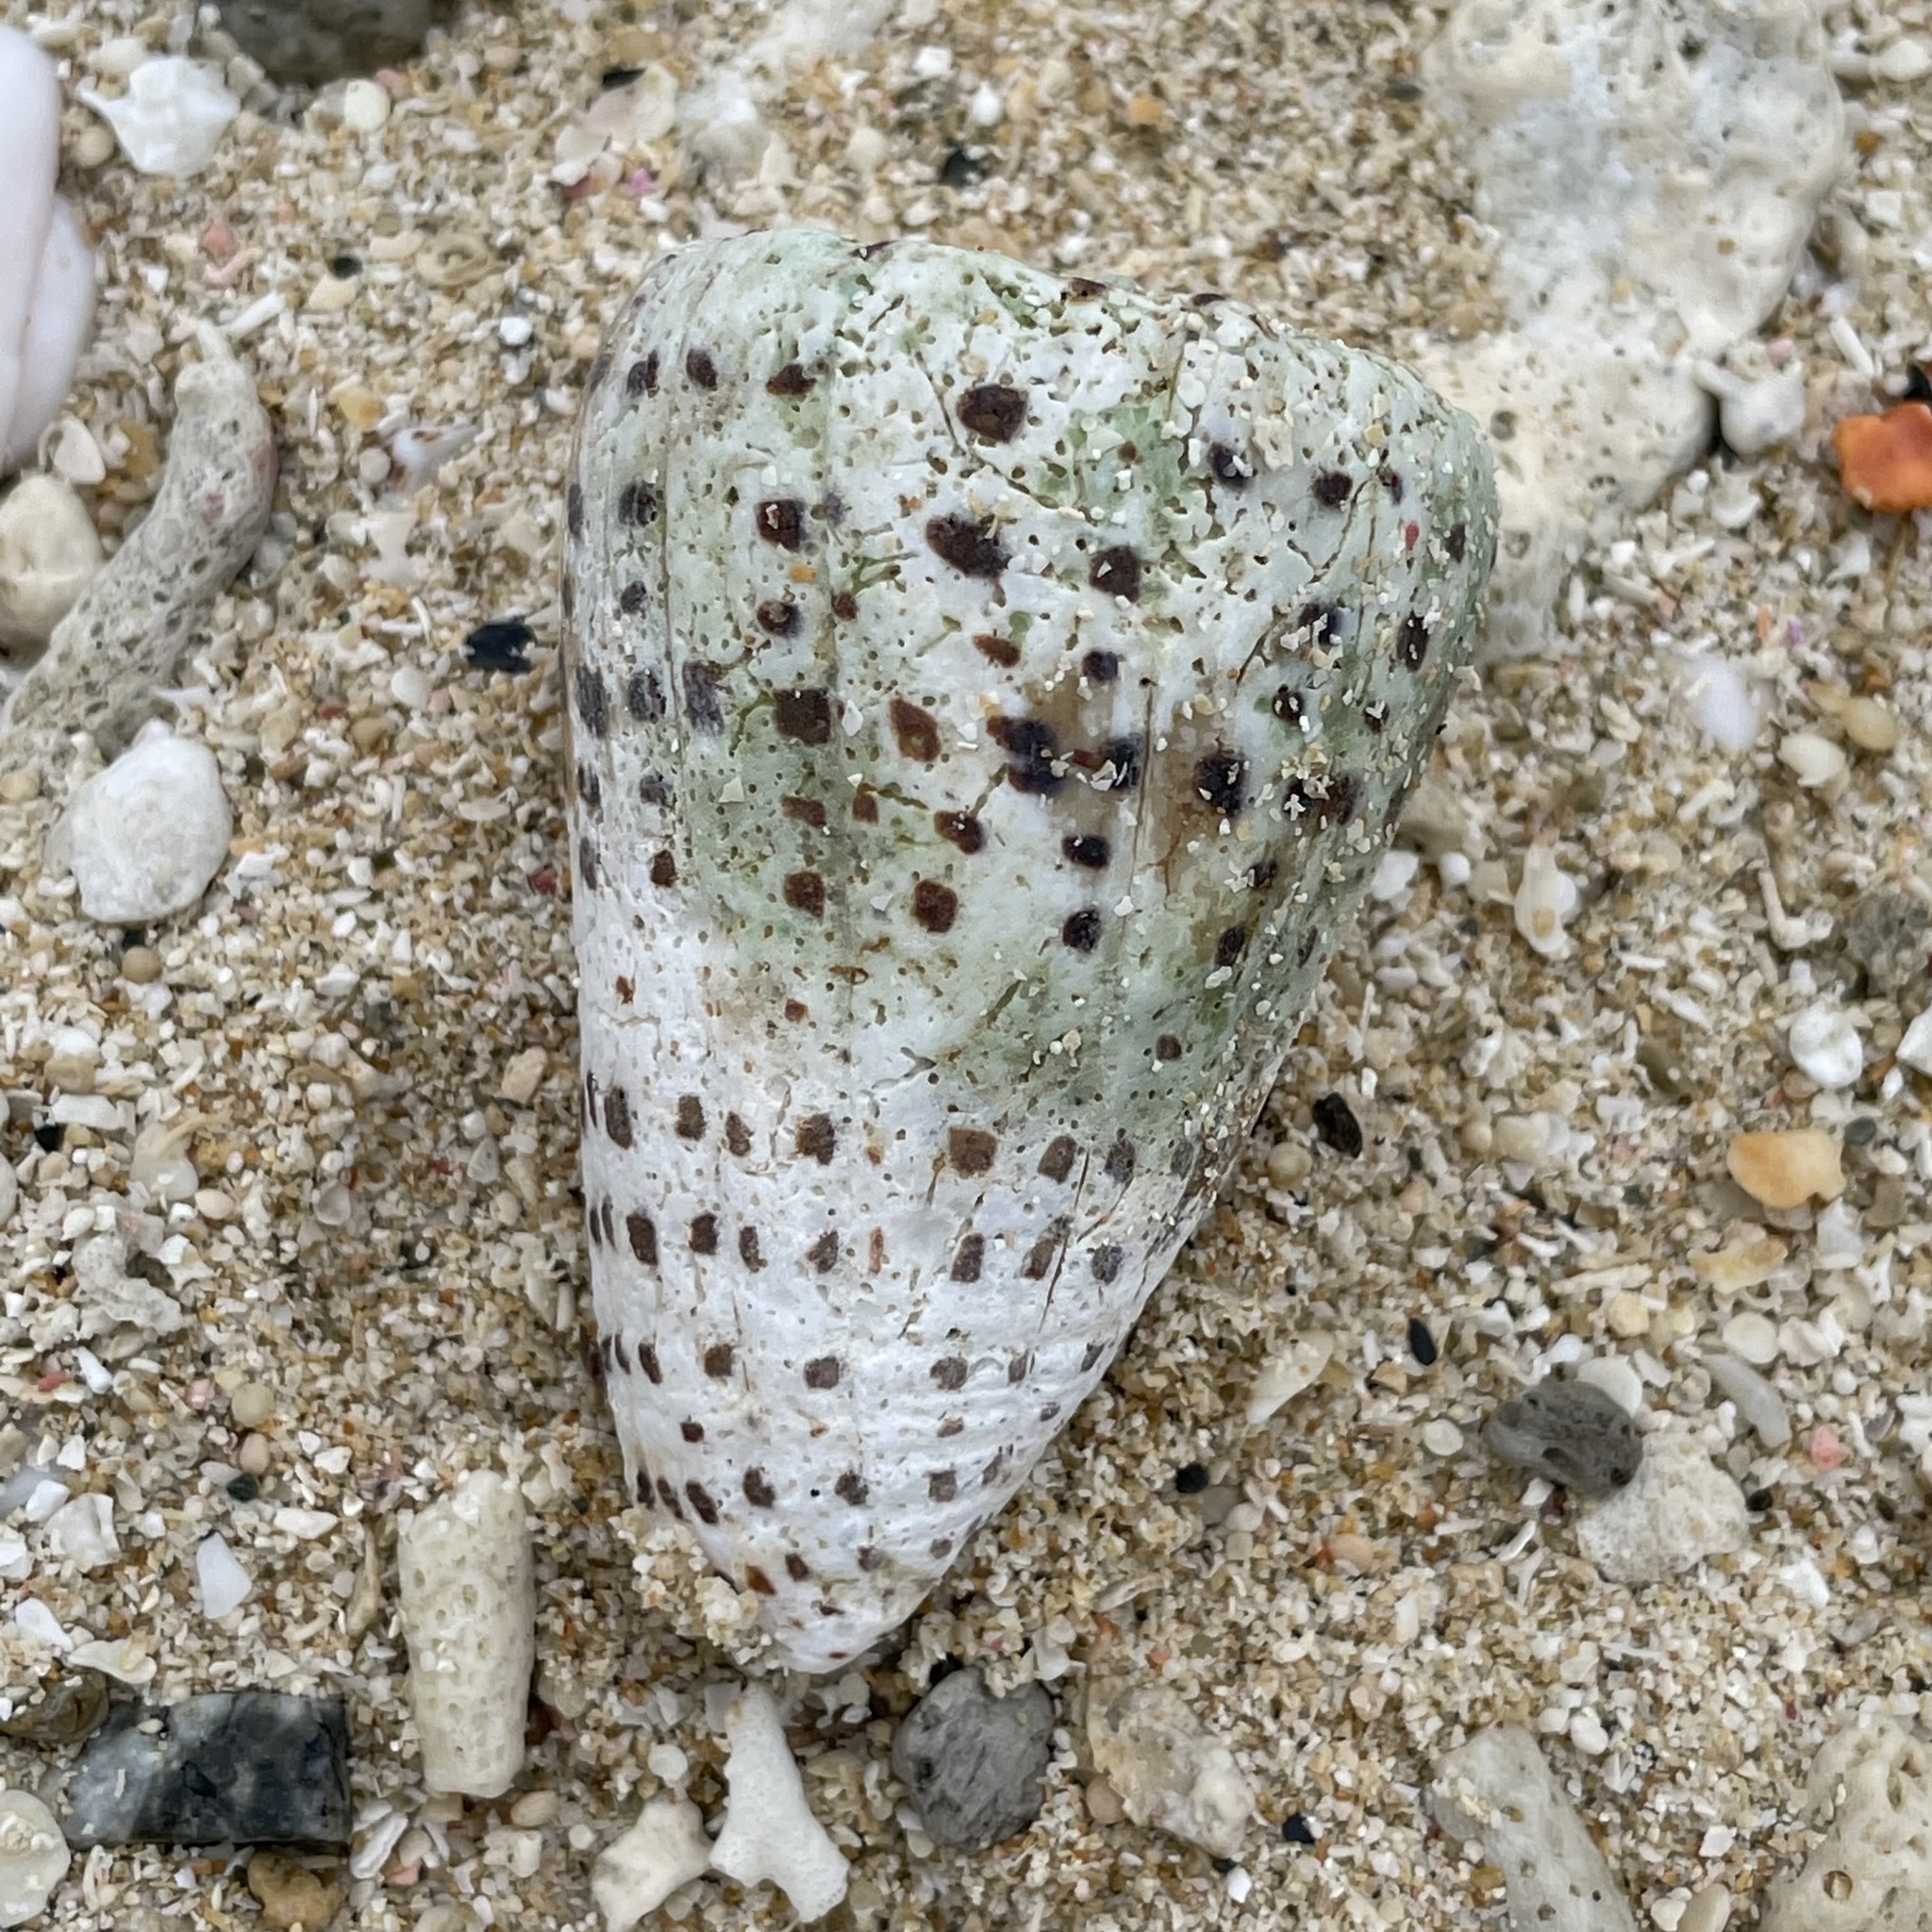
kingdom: Animalia
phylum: Mollusca
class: Gastropoda
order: Neogastropoda
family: Conidae
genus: Conus
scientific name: Conus eburneus
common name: Ivory cone
